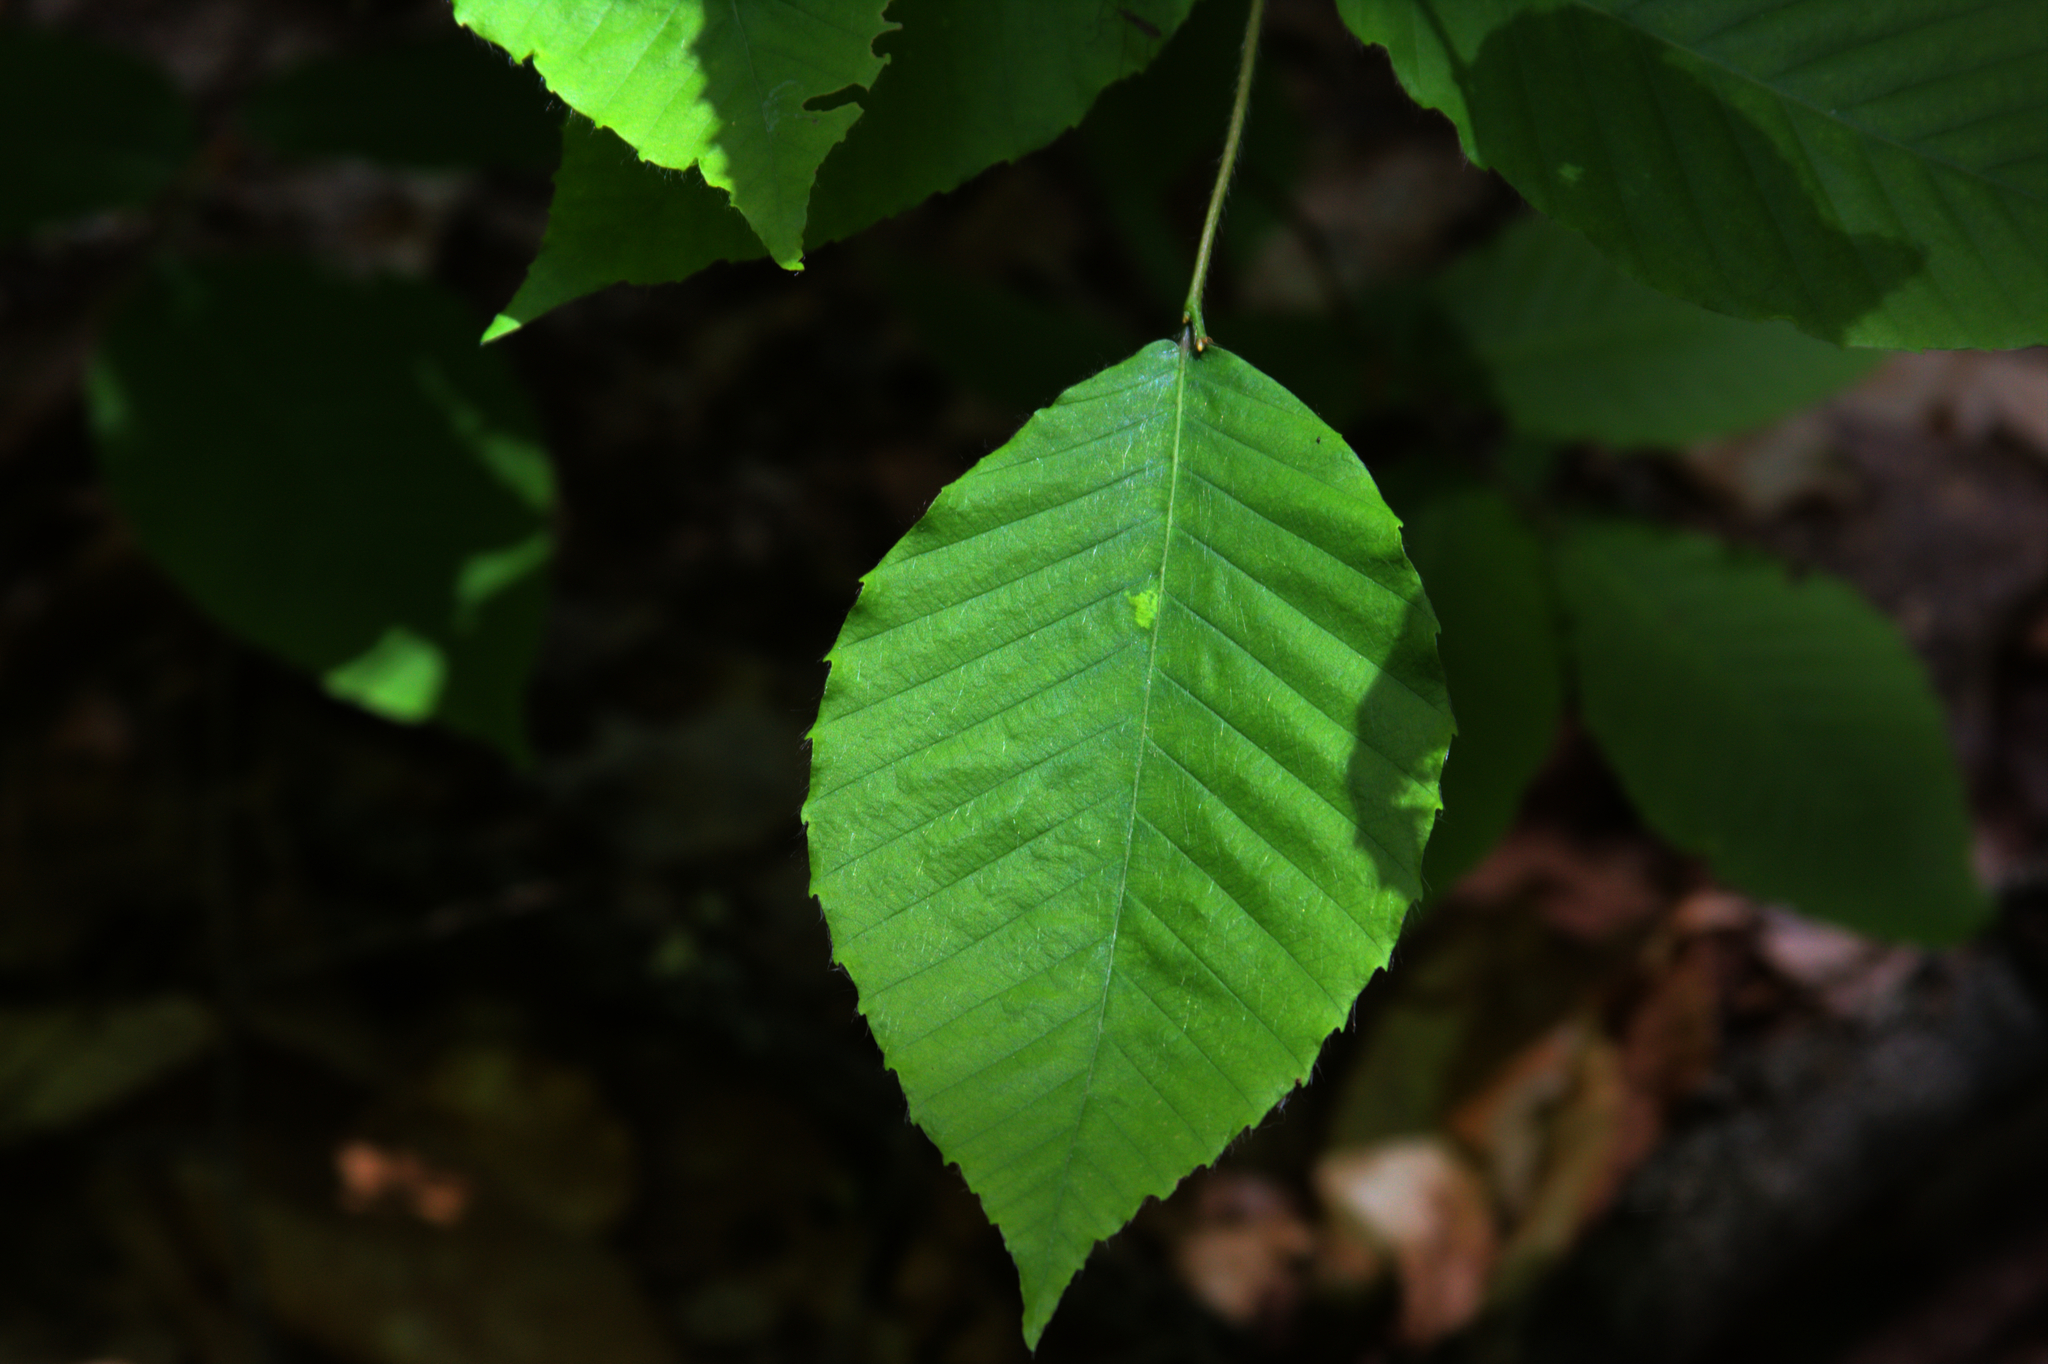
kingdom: Plantae
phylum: Tracheophyta
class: Magnoliopsida
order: Fagales
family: Fagaceae
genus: Fagus
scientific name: Fagus grandifolia
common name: American beech
